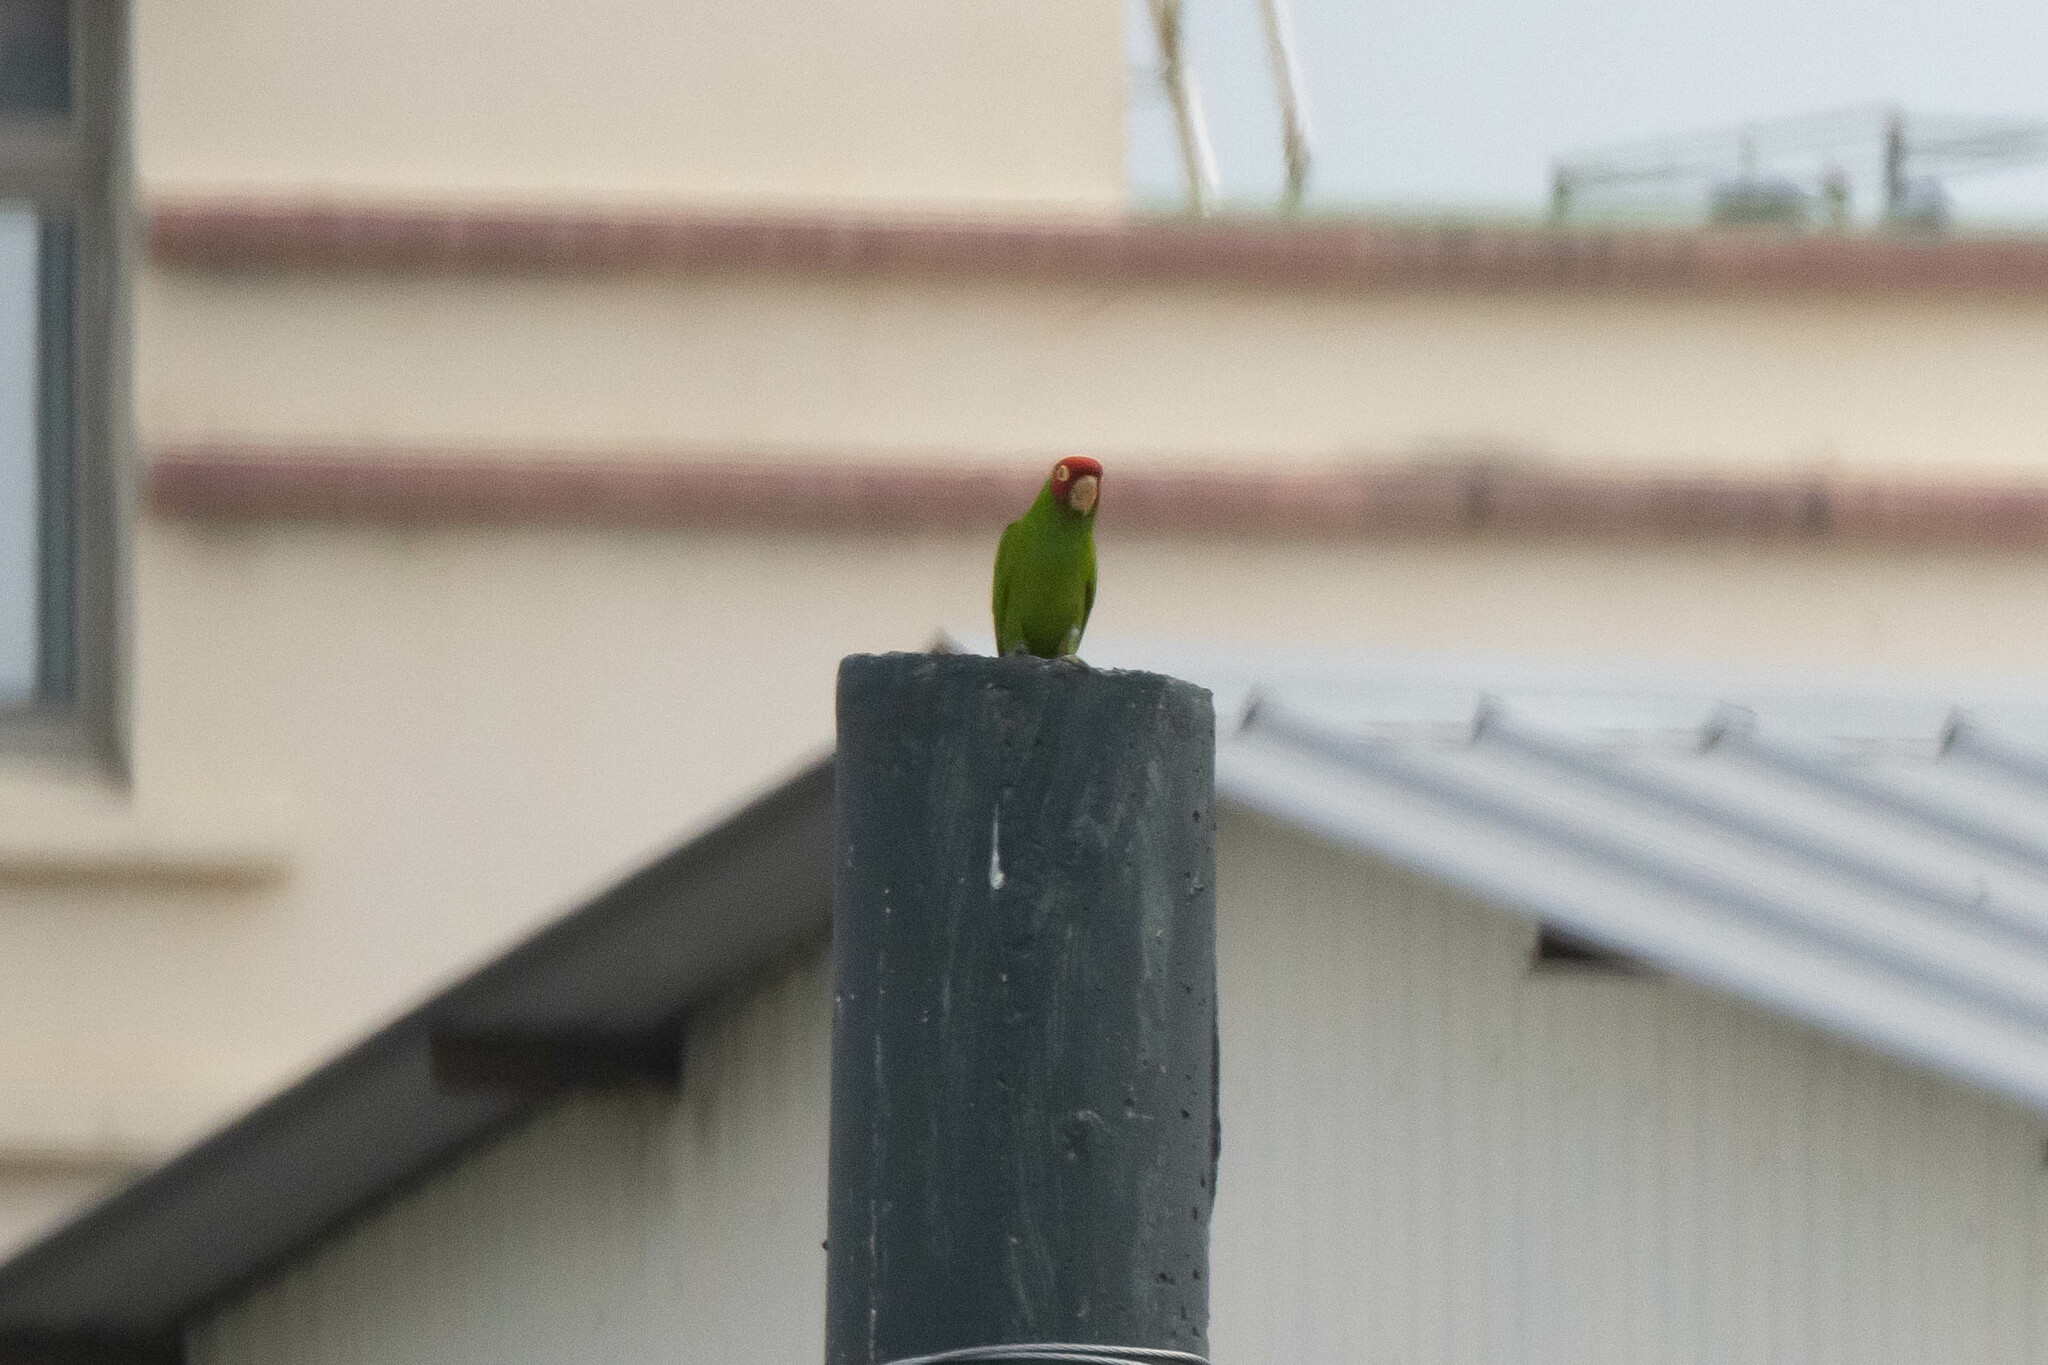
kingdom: Animalia
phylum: Chordata
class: Aves
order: Psittaciformes
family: Psittacidae
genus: Aratinga
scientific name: Aratinga erythrogenys
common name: Red-masked parakeet
